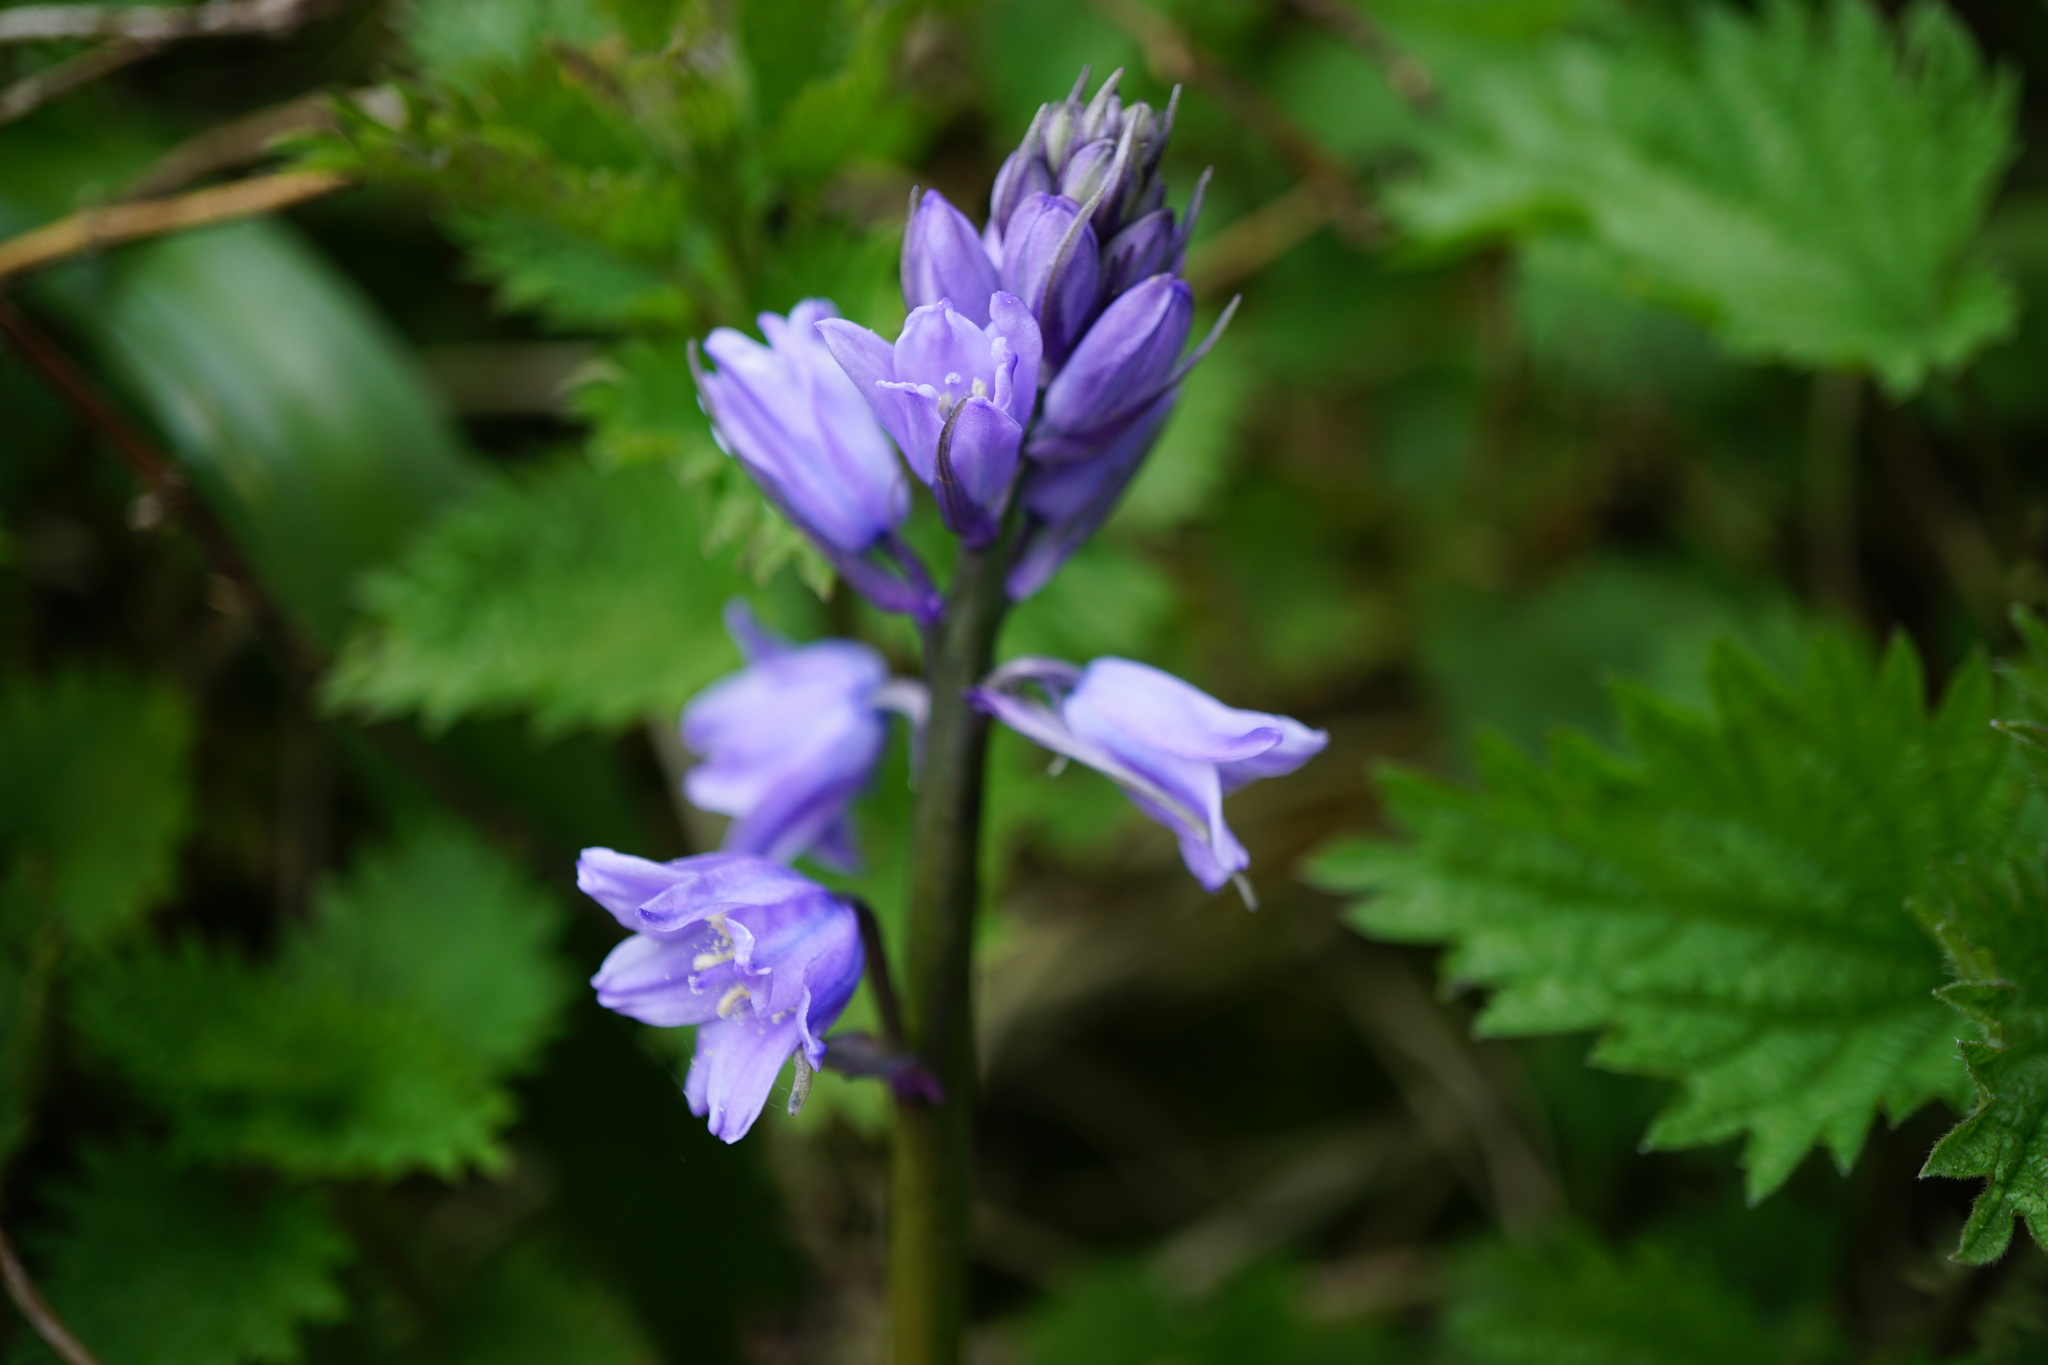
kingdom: Plantae
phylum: Tracheophyta
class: Liliopsida
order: Asparagales
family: Asparagaceae
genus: Hyacinthoides
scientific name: Hyacinthoides massartiana
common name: Hyacinthoides
